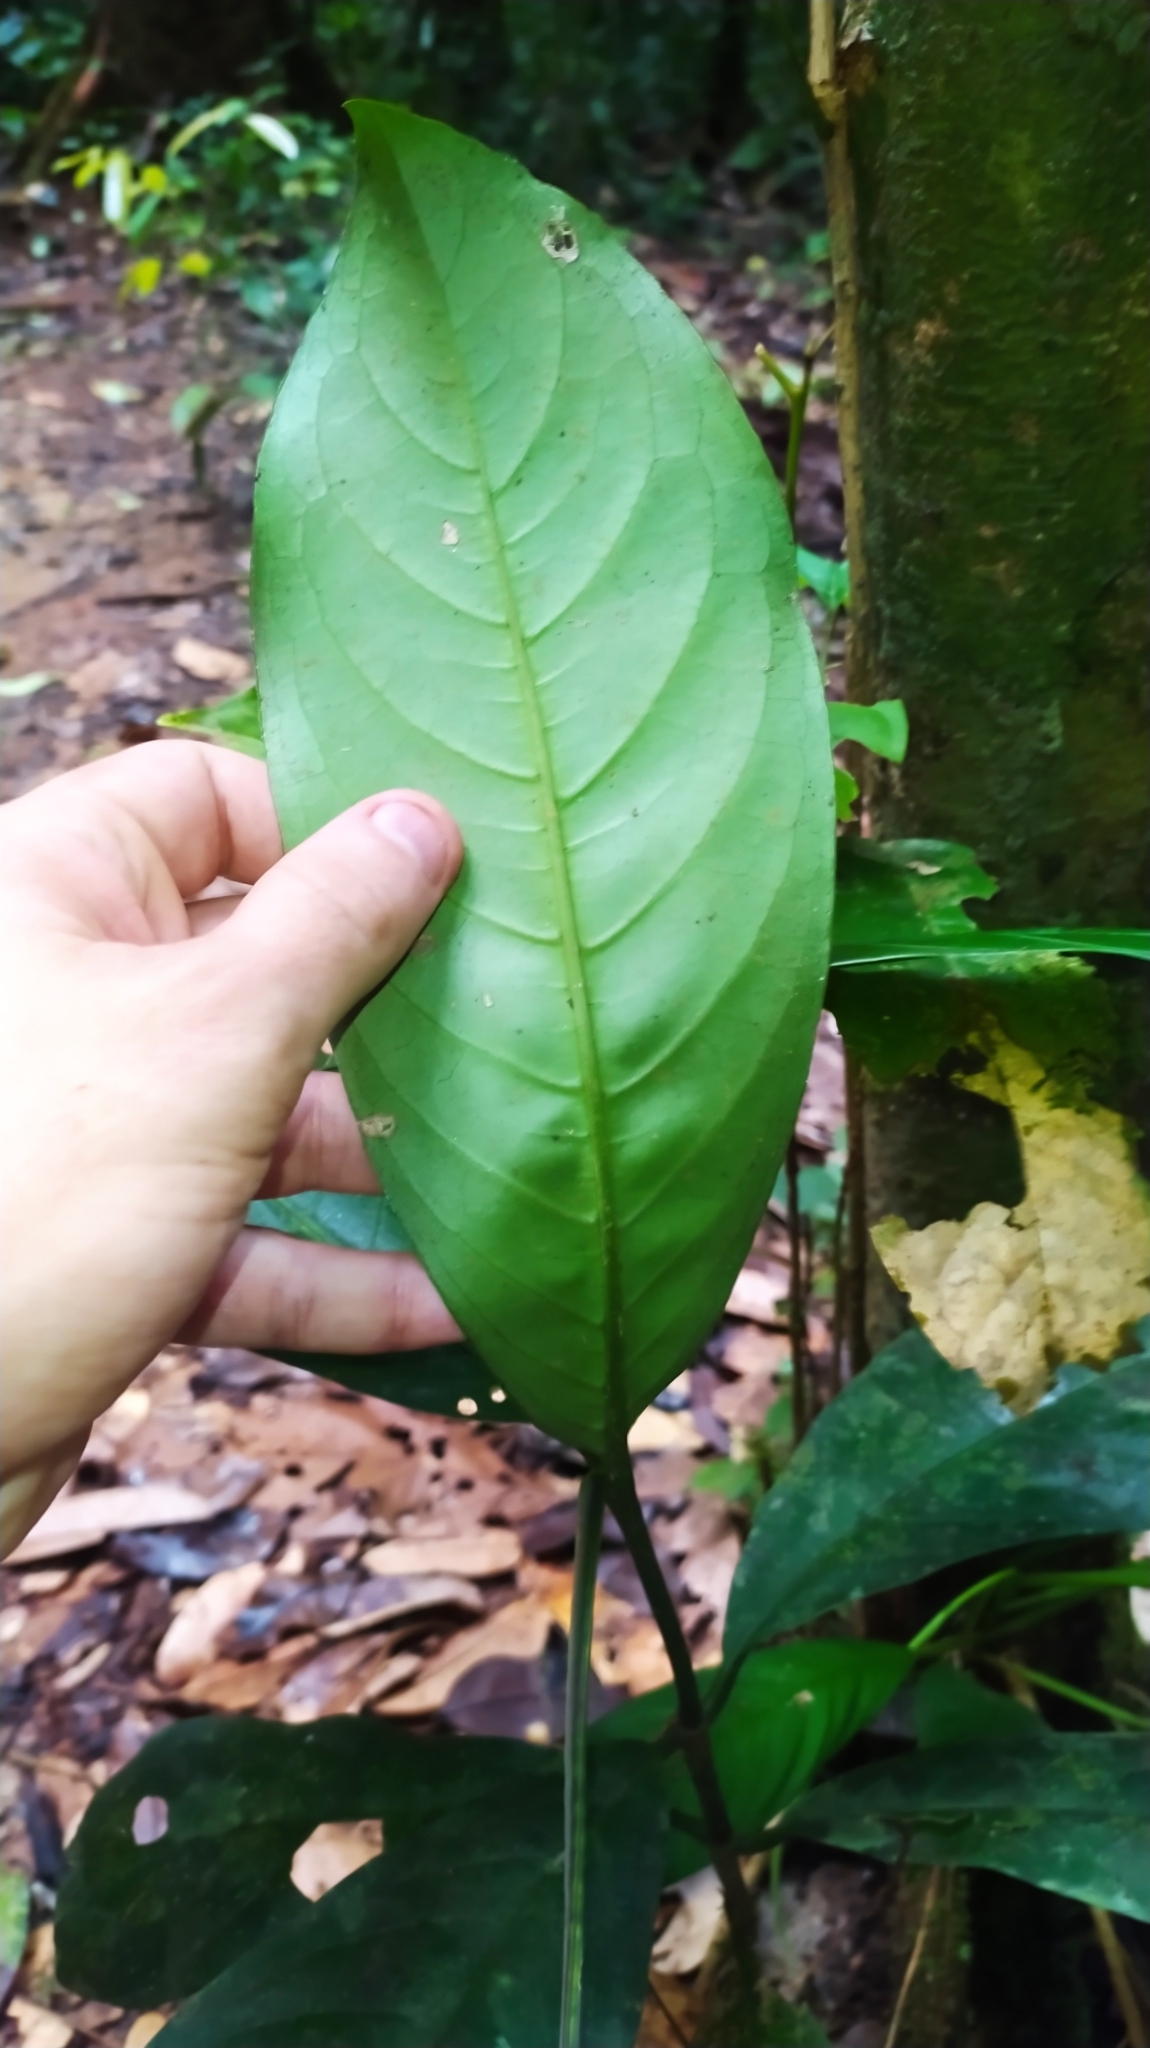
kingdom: Plantae
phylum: Tracheophyta
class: Magnoliopsida
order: Gentianales
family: Rubiaceae
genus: Rudgea
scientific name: Rudgea stipulacea
